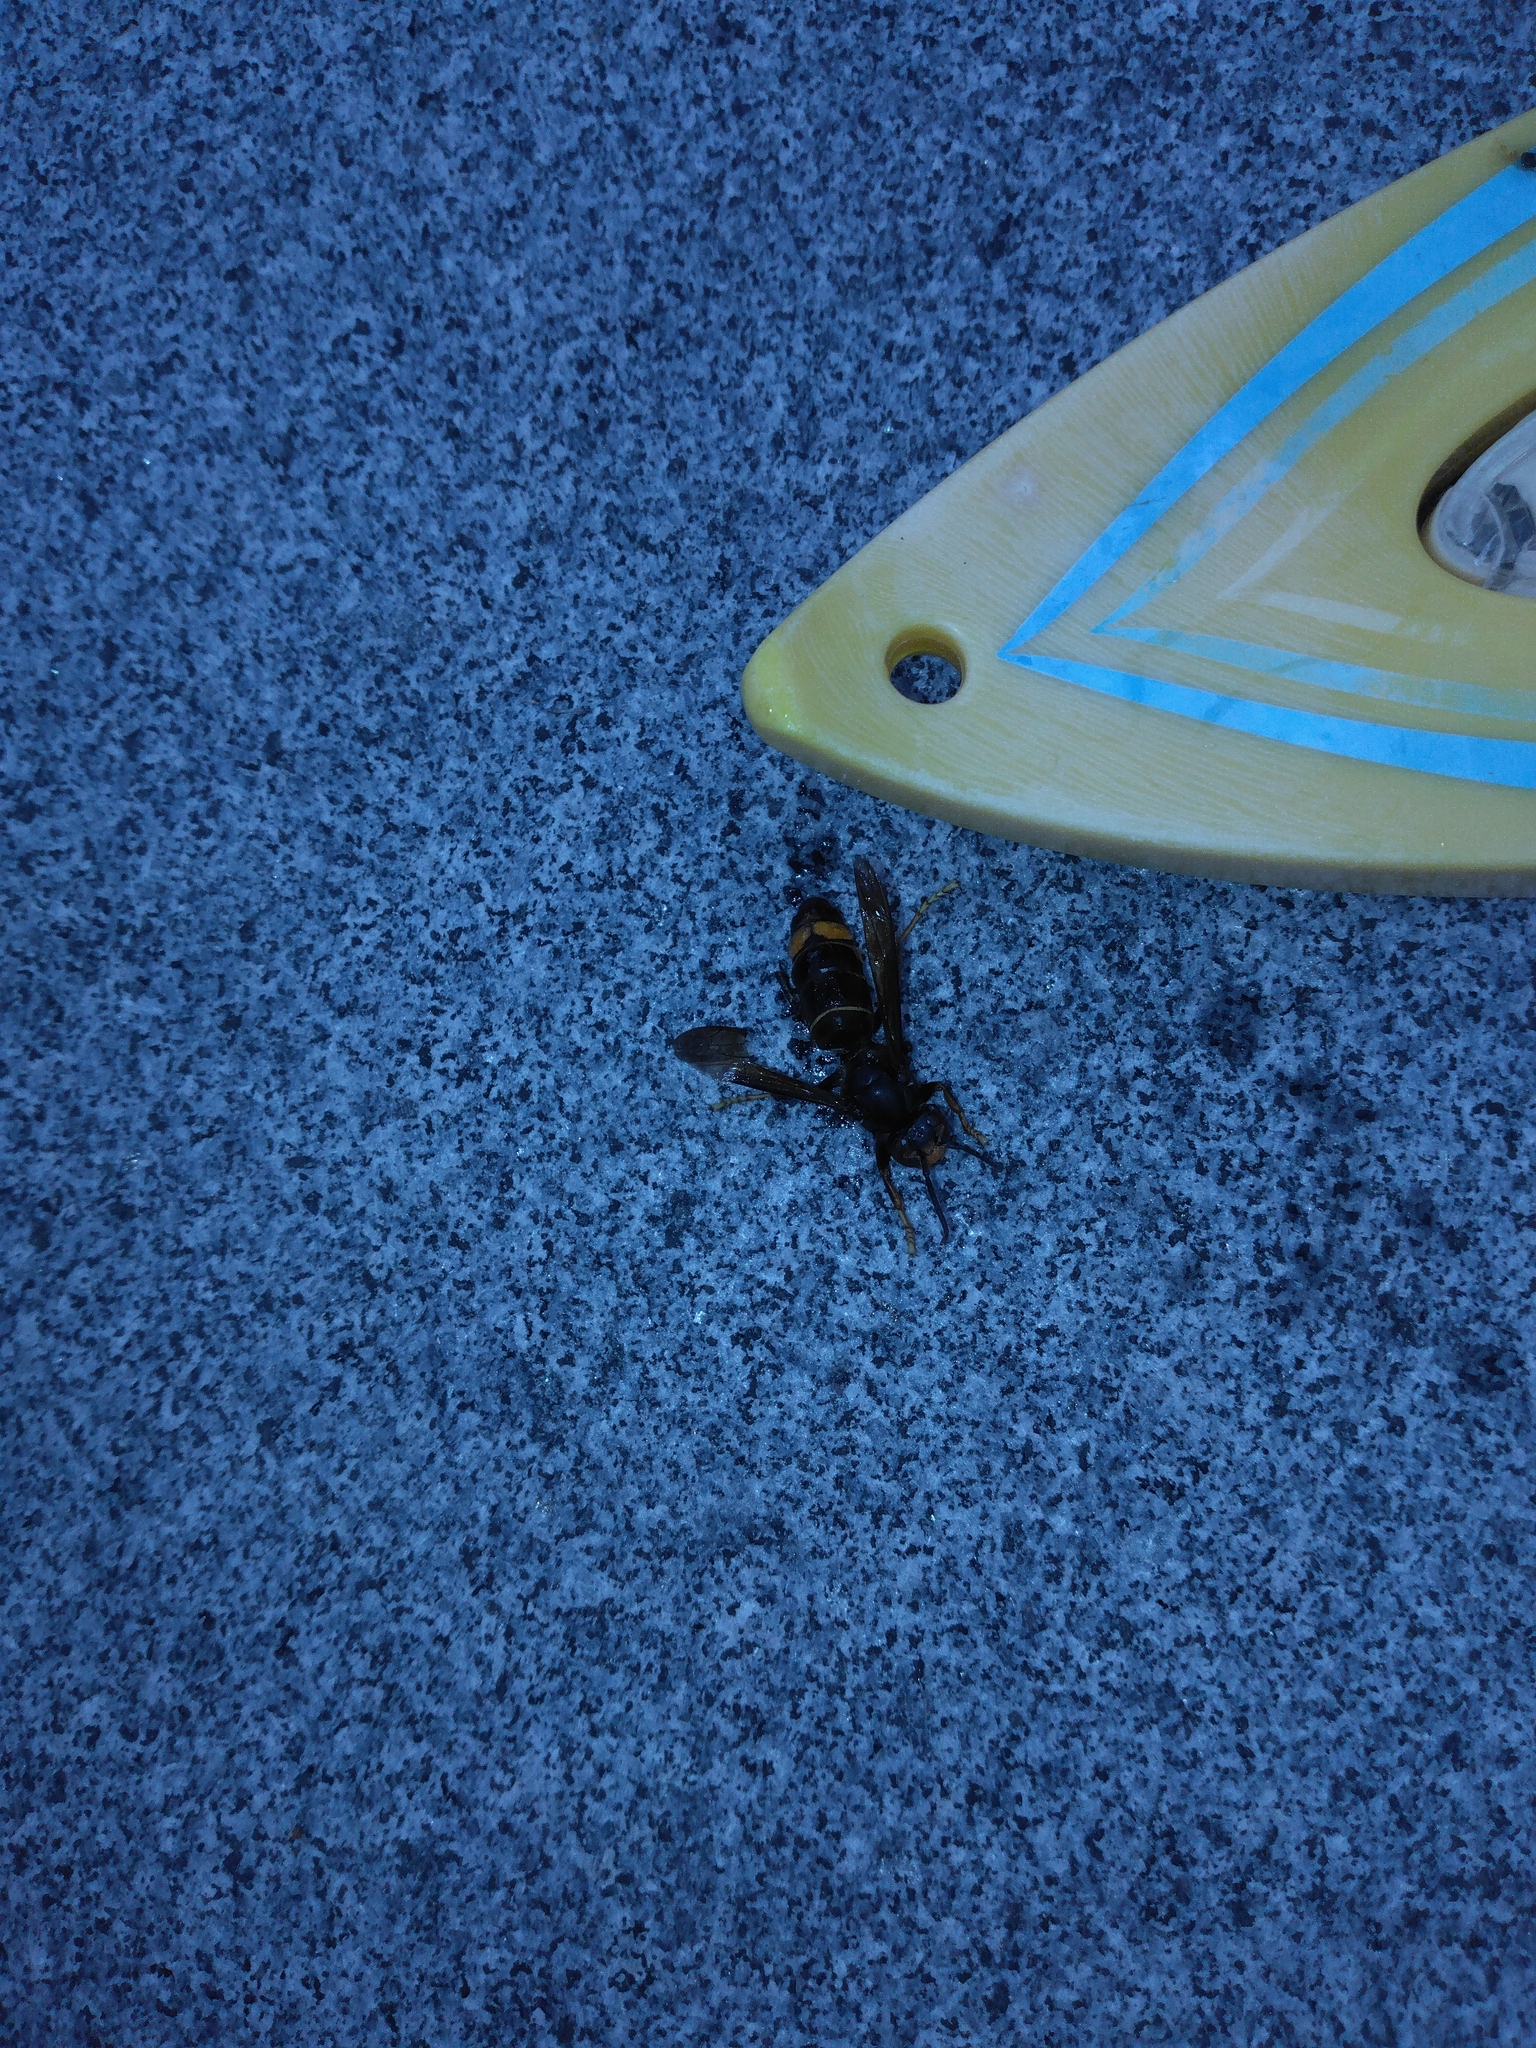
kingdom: Animalia
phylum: Arthropoda
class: Insecta
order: Hymenoptera
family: Vespidae
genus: Vespa
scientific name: Vespa velutina
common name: Asian hornet
